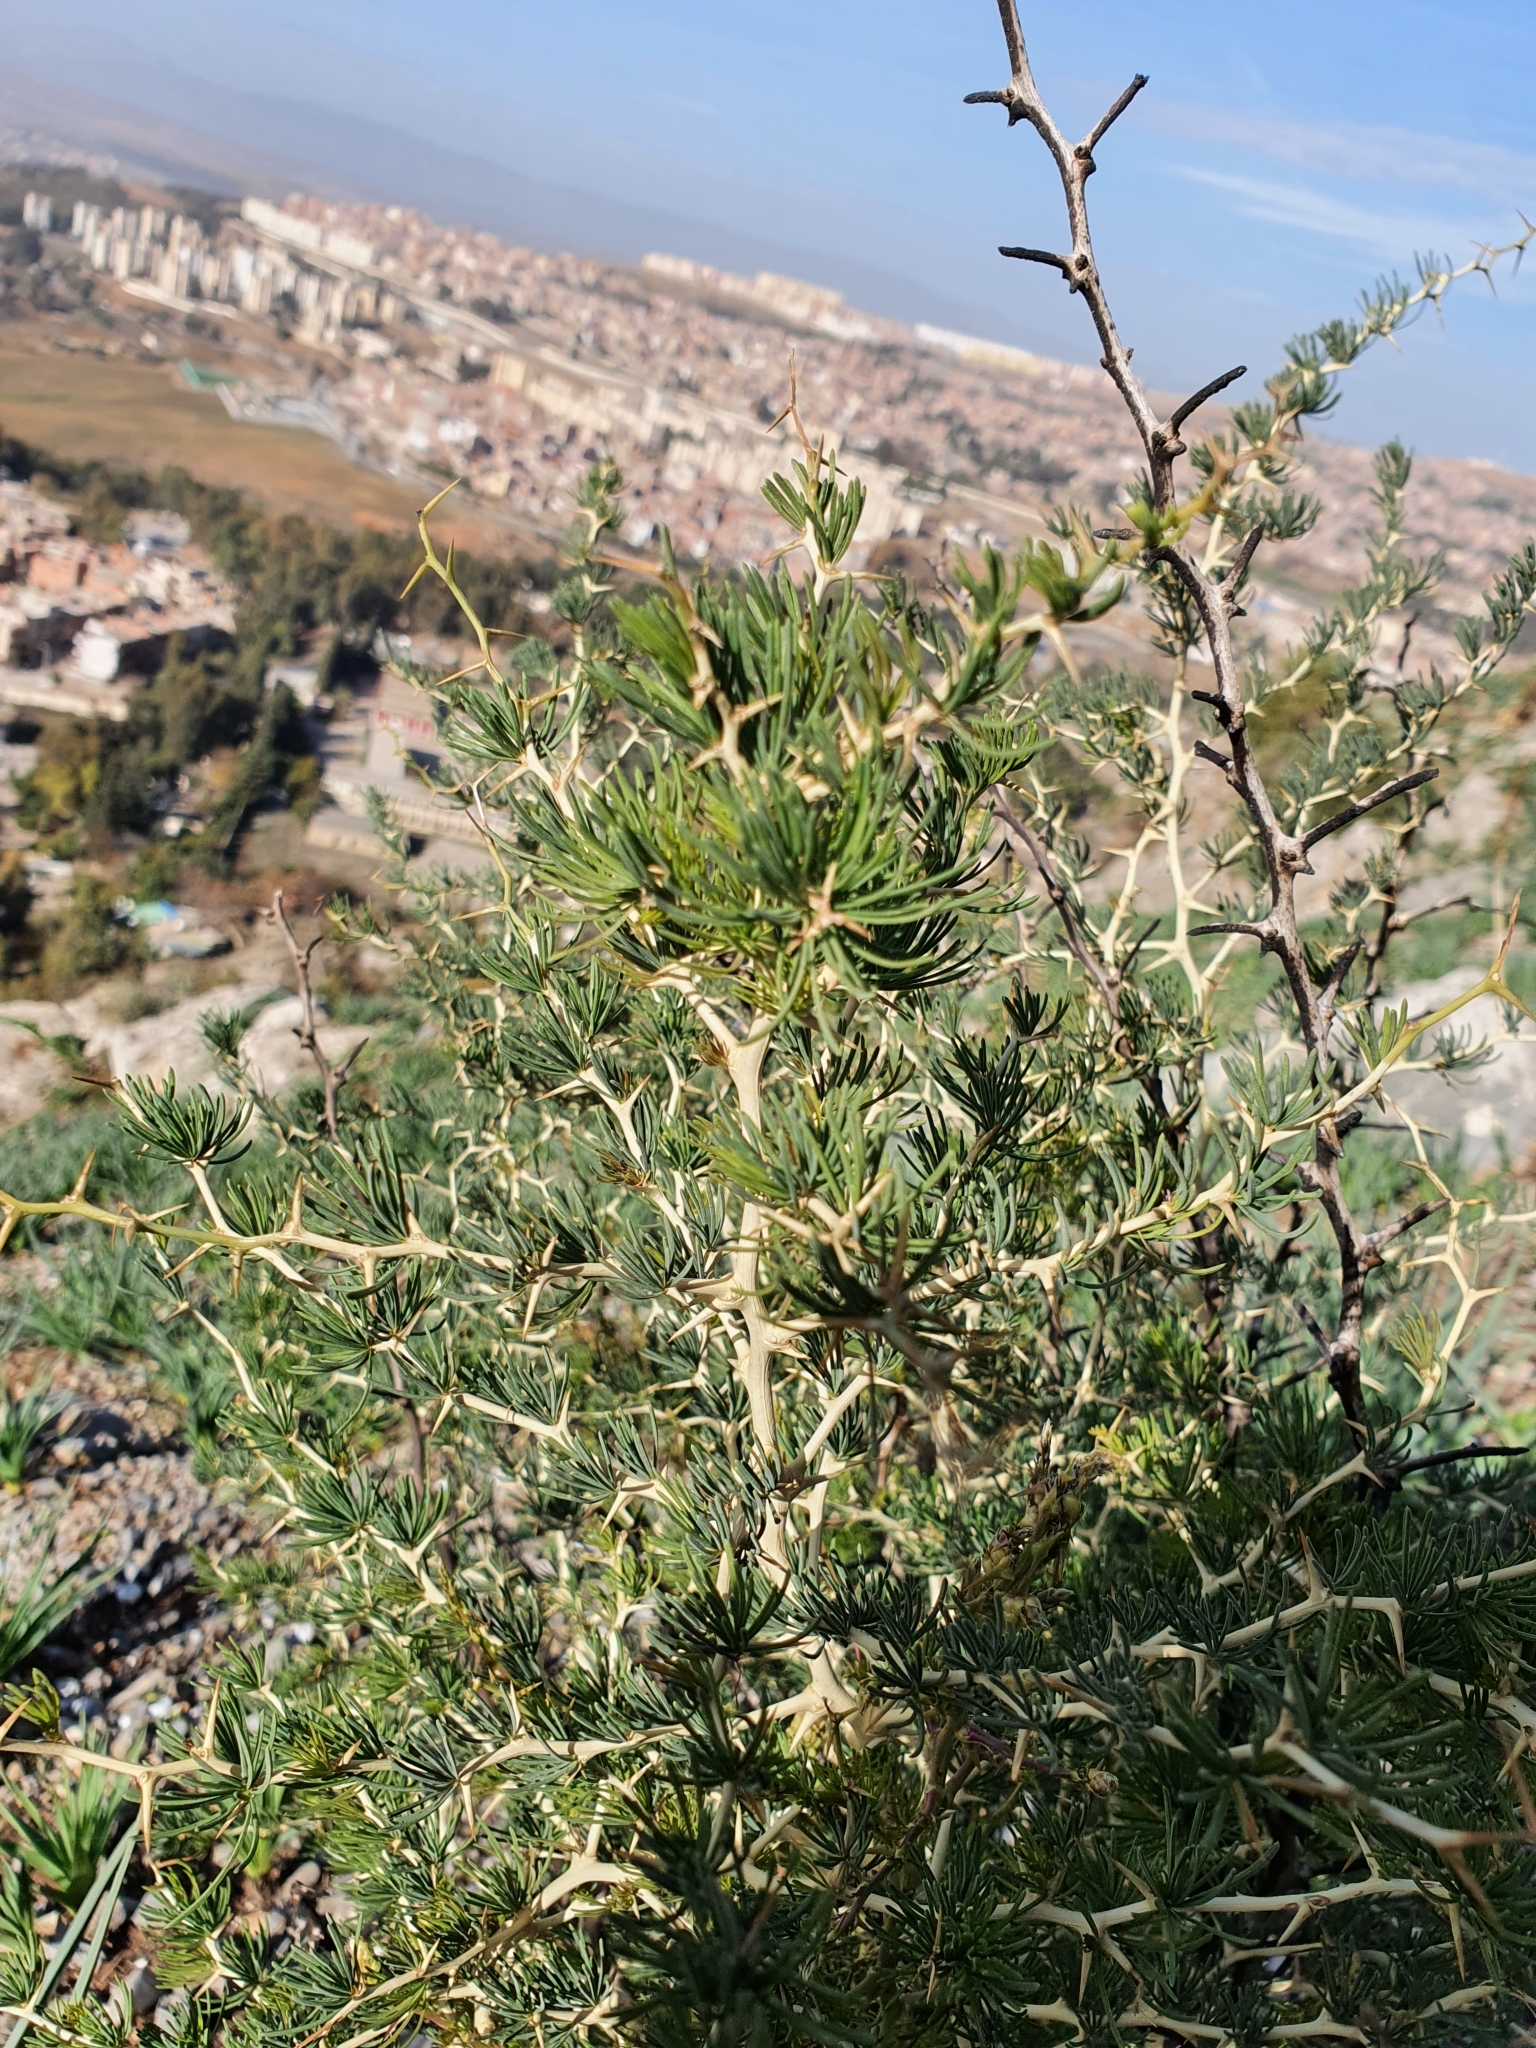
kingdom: Plantae
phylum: Tracheophyta
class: Liliopsida
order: Asparagales
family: Asparagaceae
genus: Asparagus
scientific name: Asparagus albus
